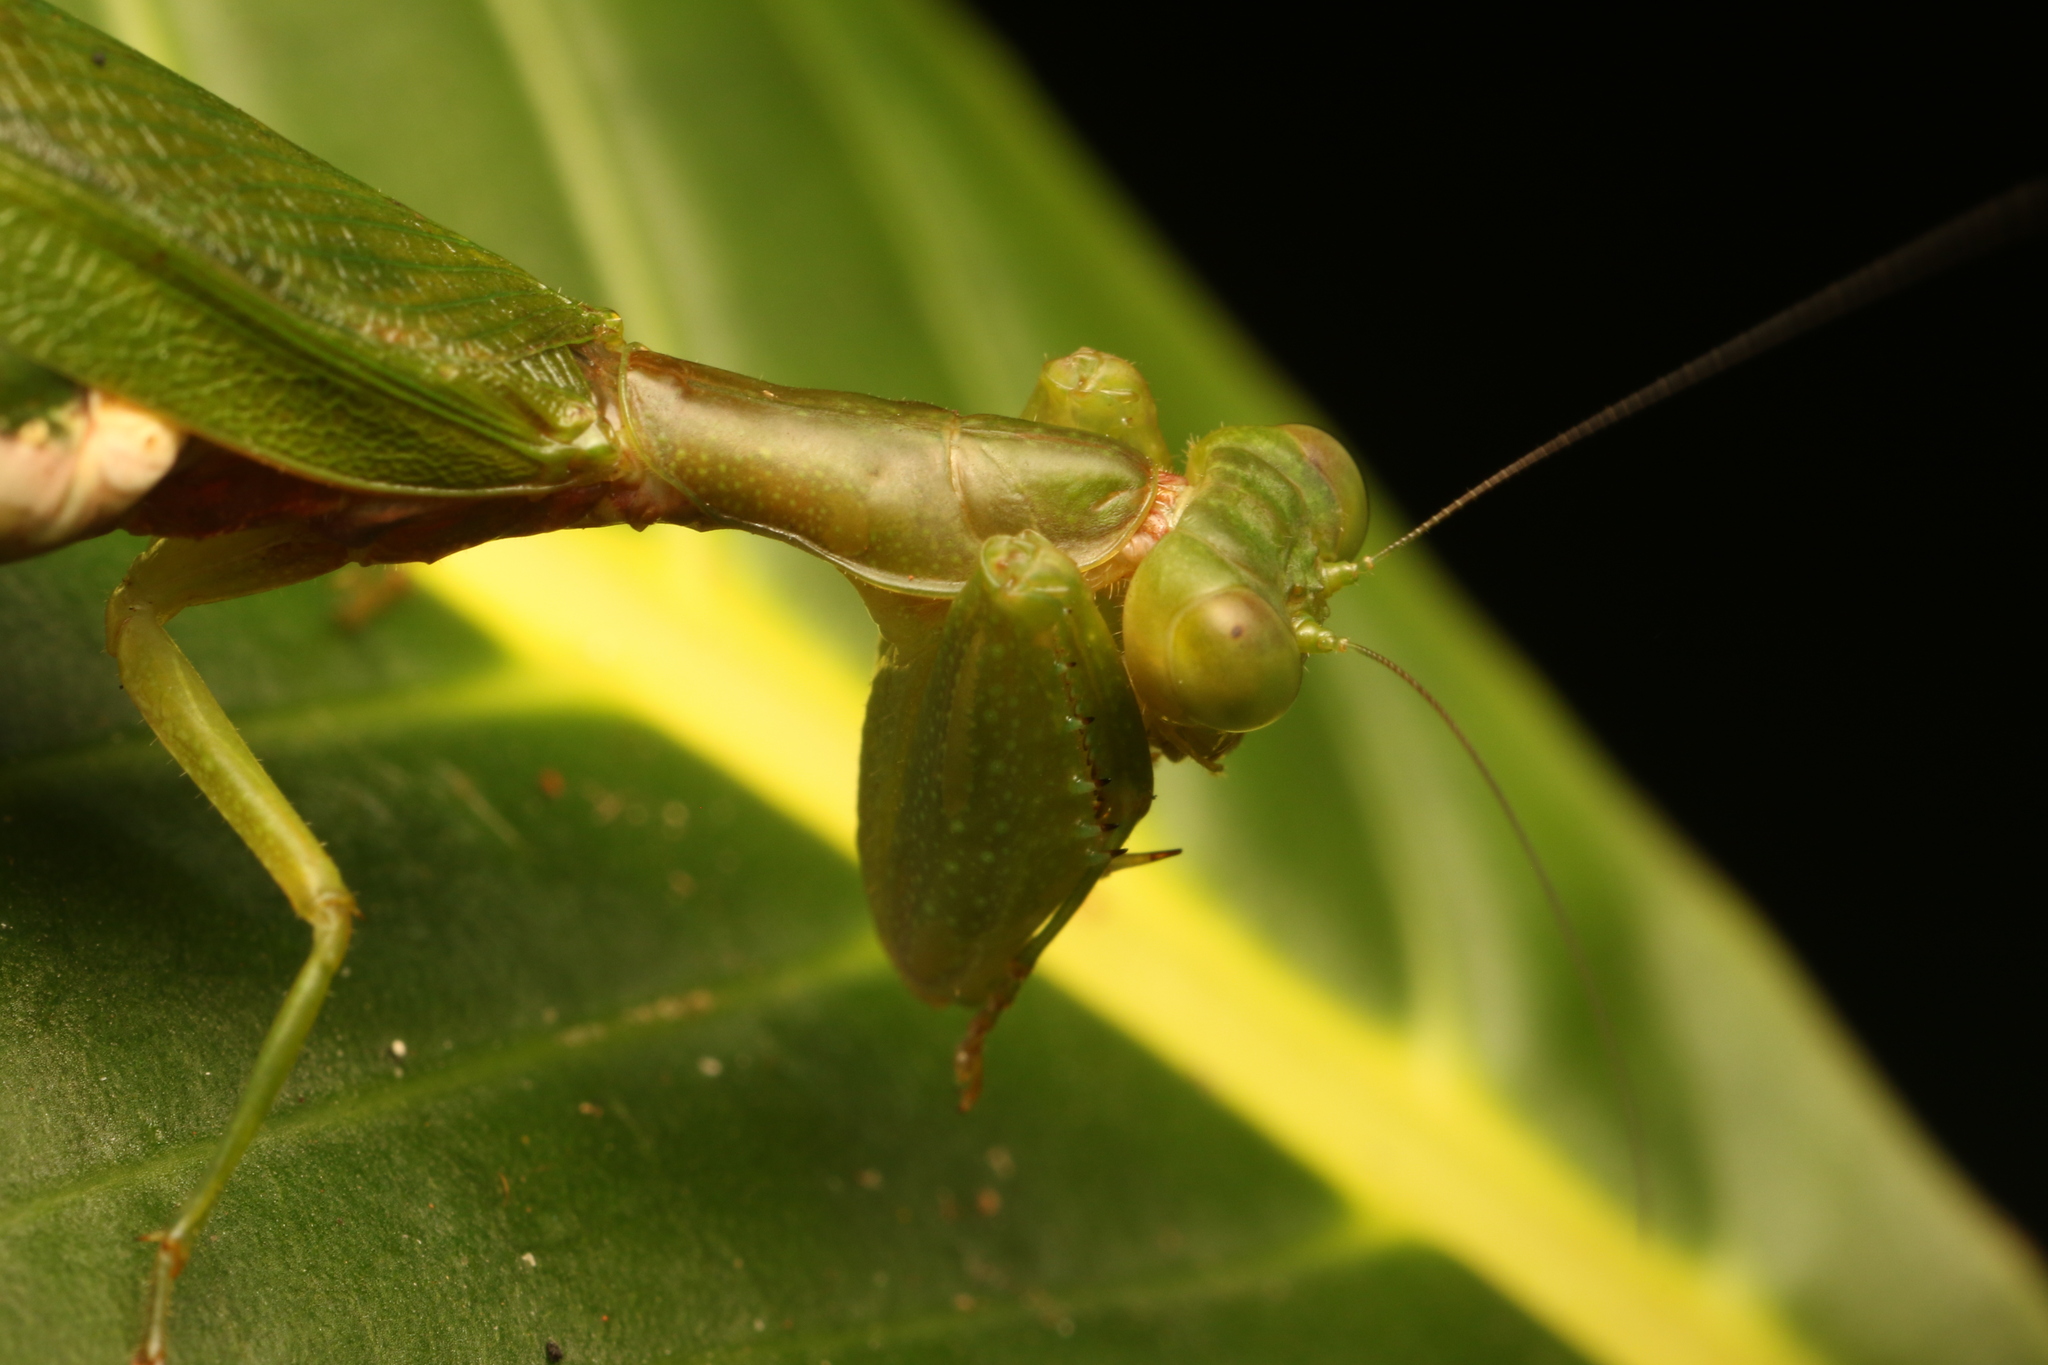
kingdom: Animalia
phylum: Arthropoda
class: Insecta
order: Mantodea
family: Acanthopidae
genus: Acontista
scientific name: Acontista concinna
